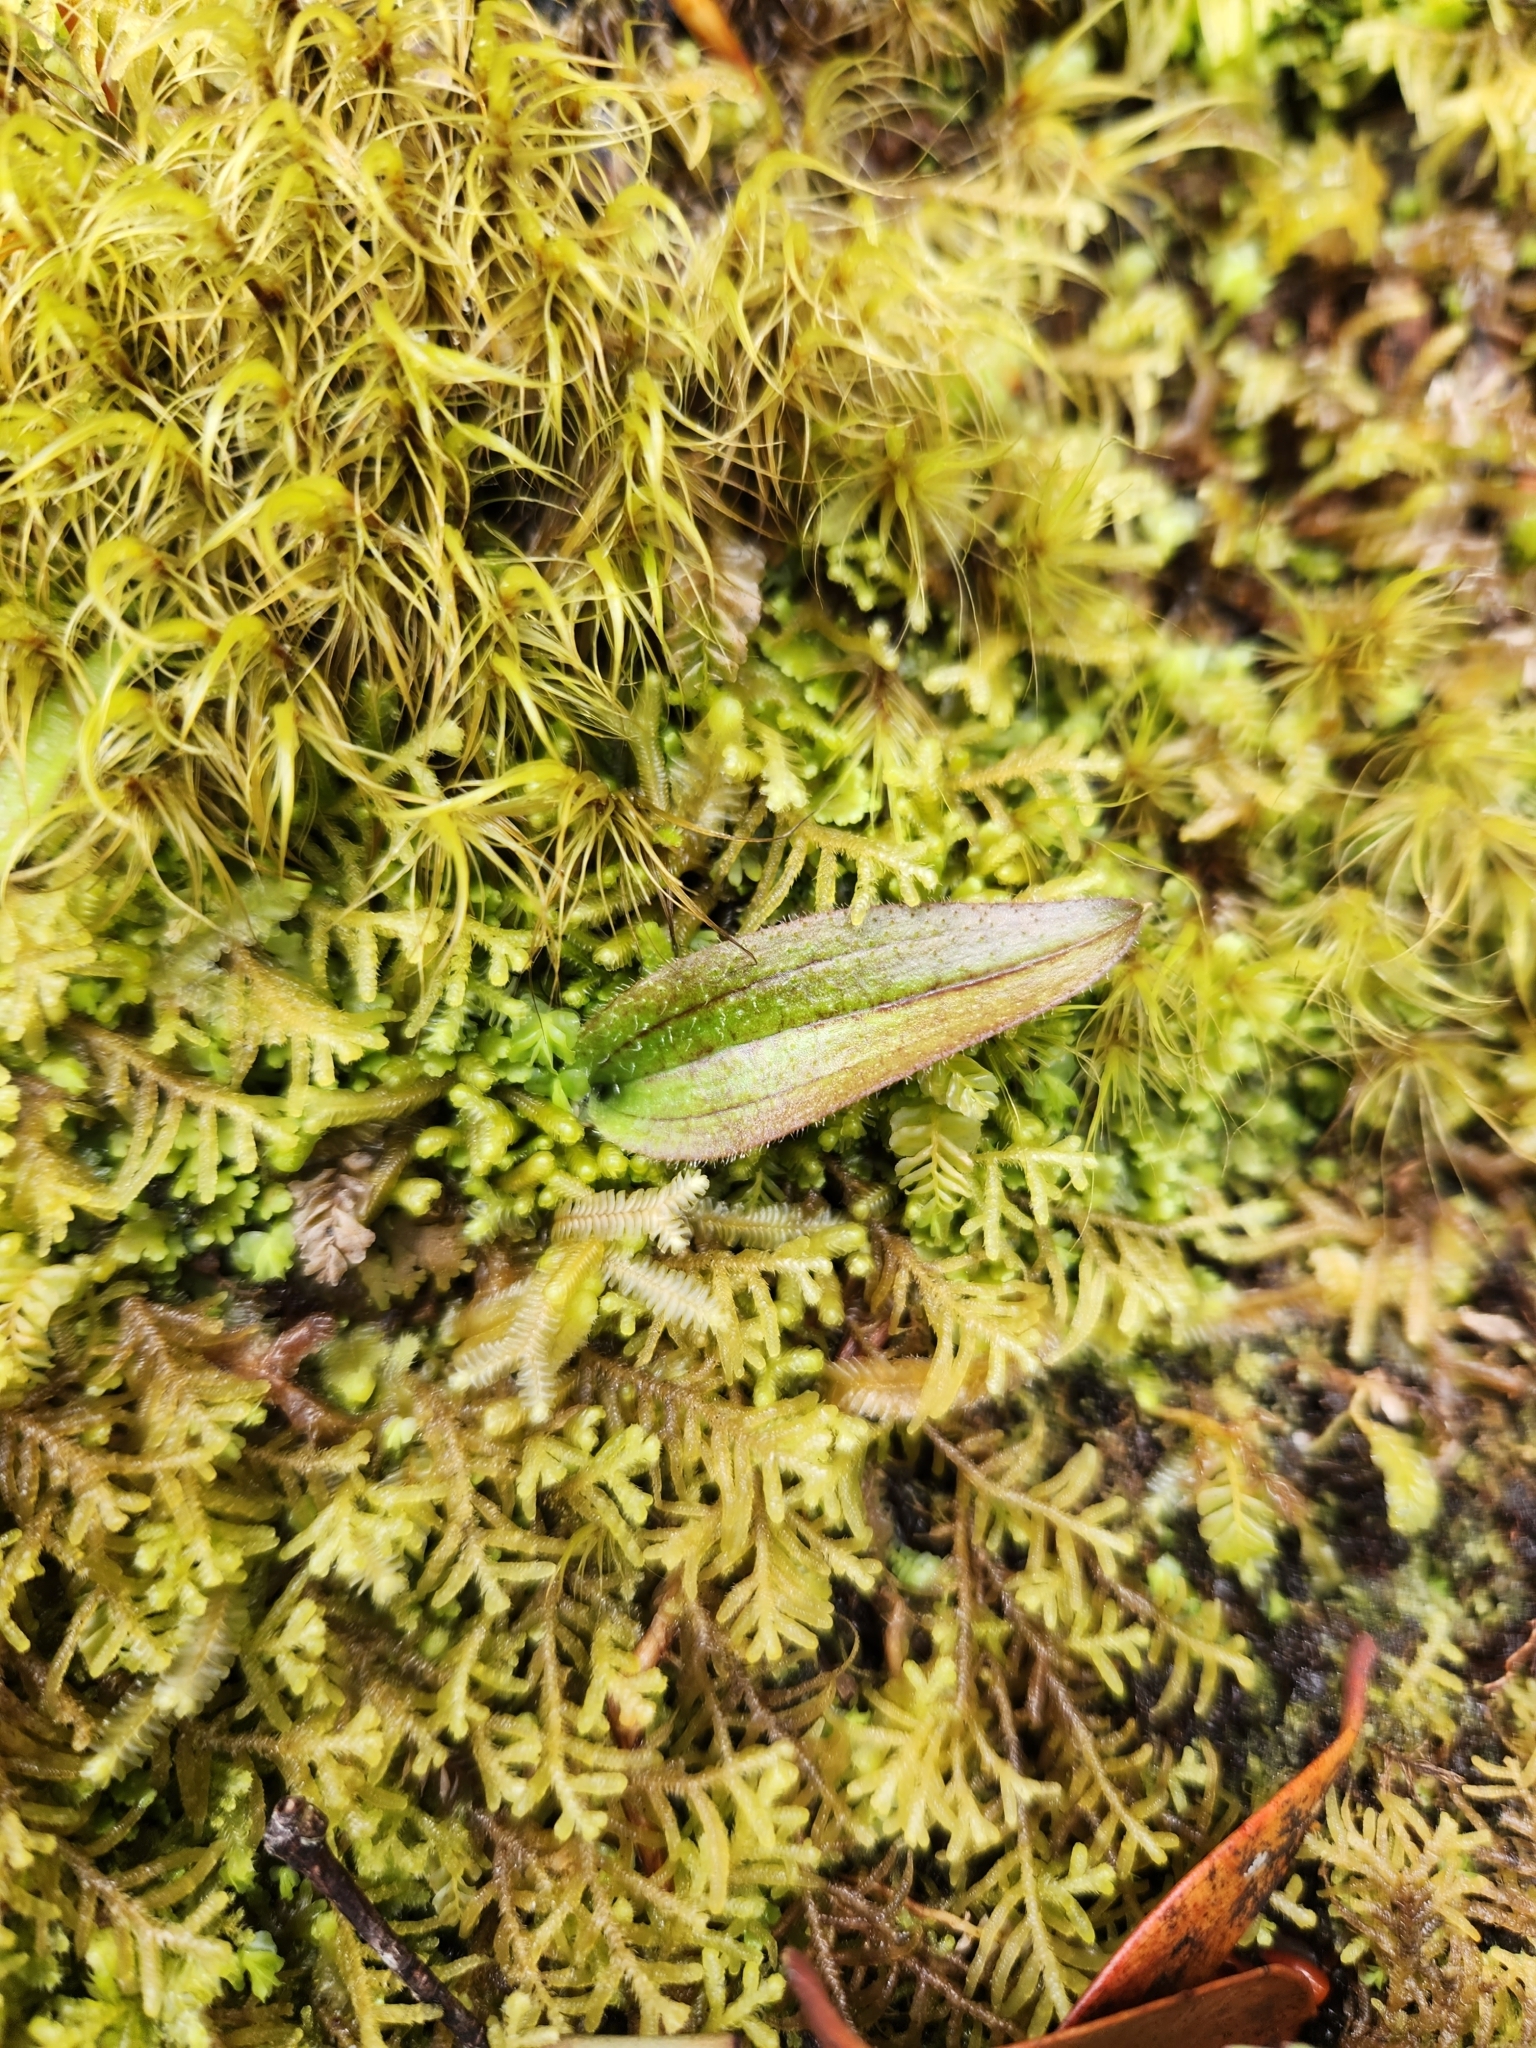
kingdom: Plantae
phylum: Tracheophyta
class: Liliopsida
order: Asparagales
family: Orchidaceae
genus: Aporostylis
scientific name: Aporostylis bifolia
